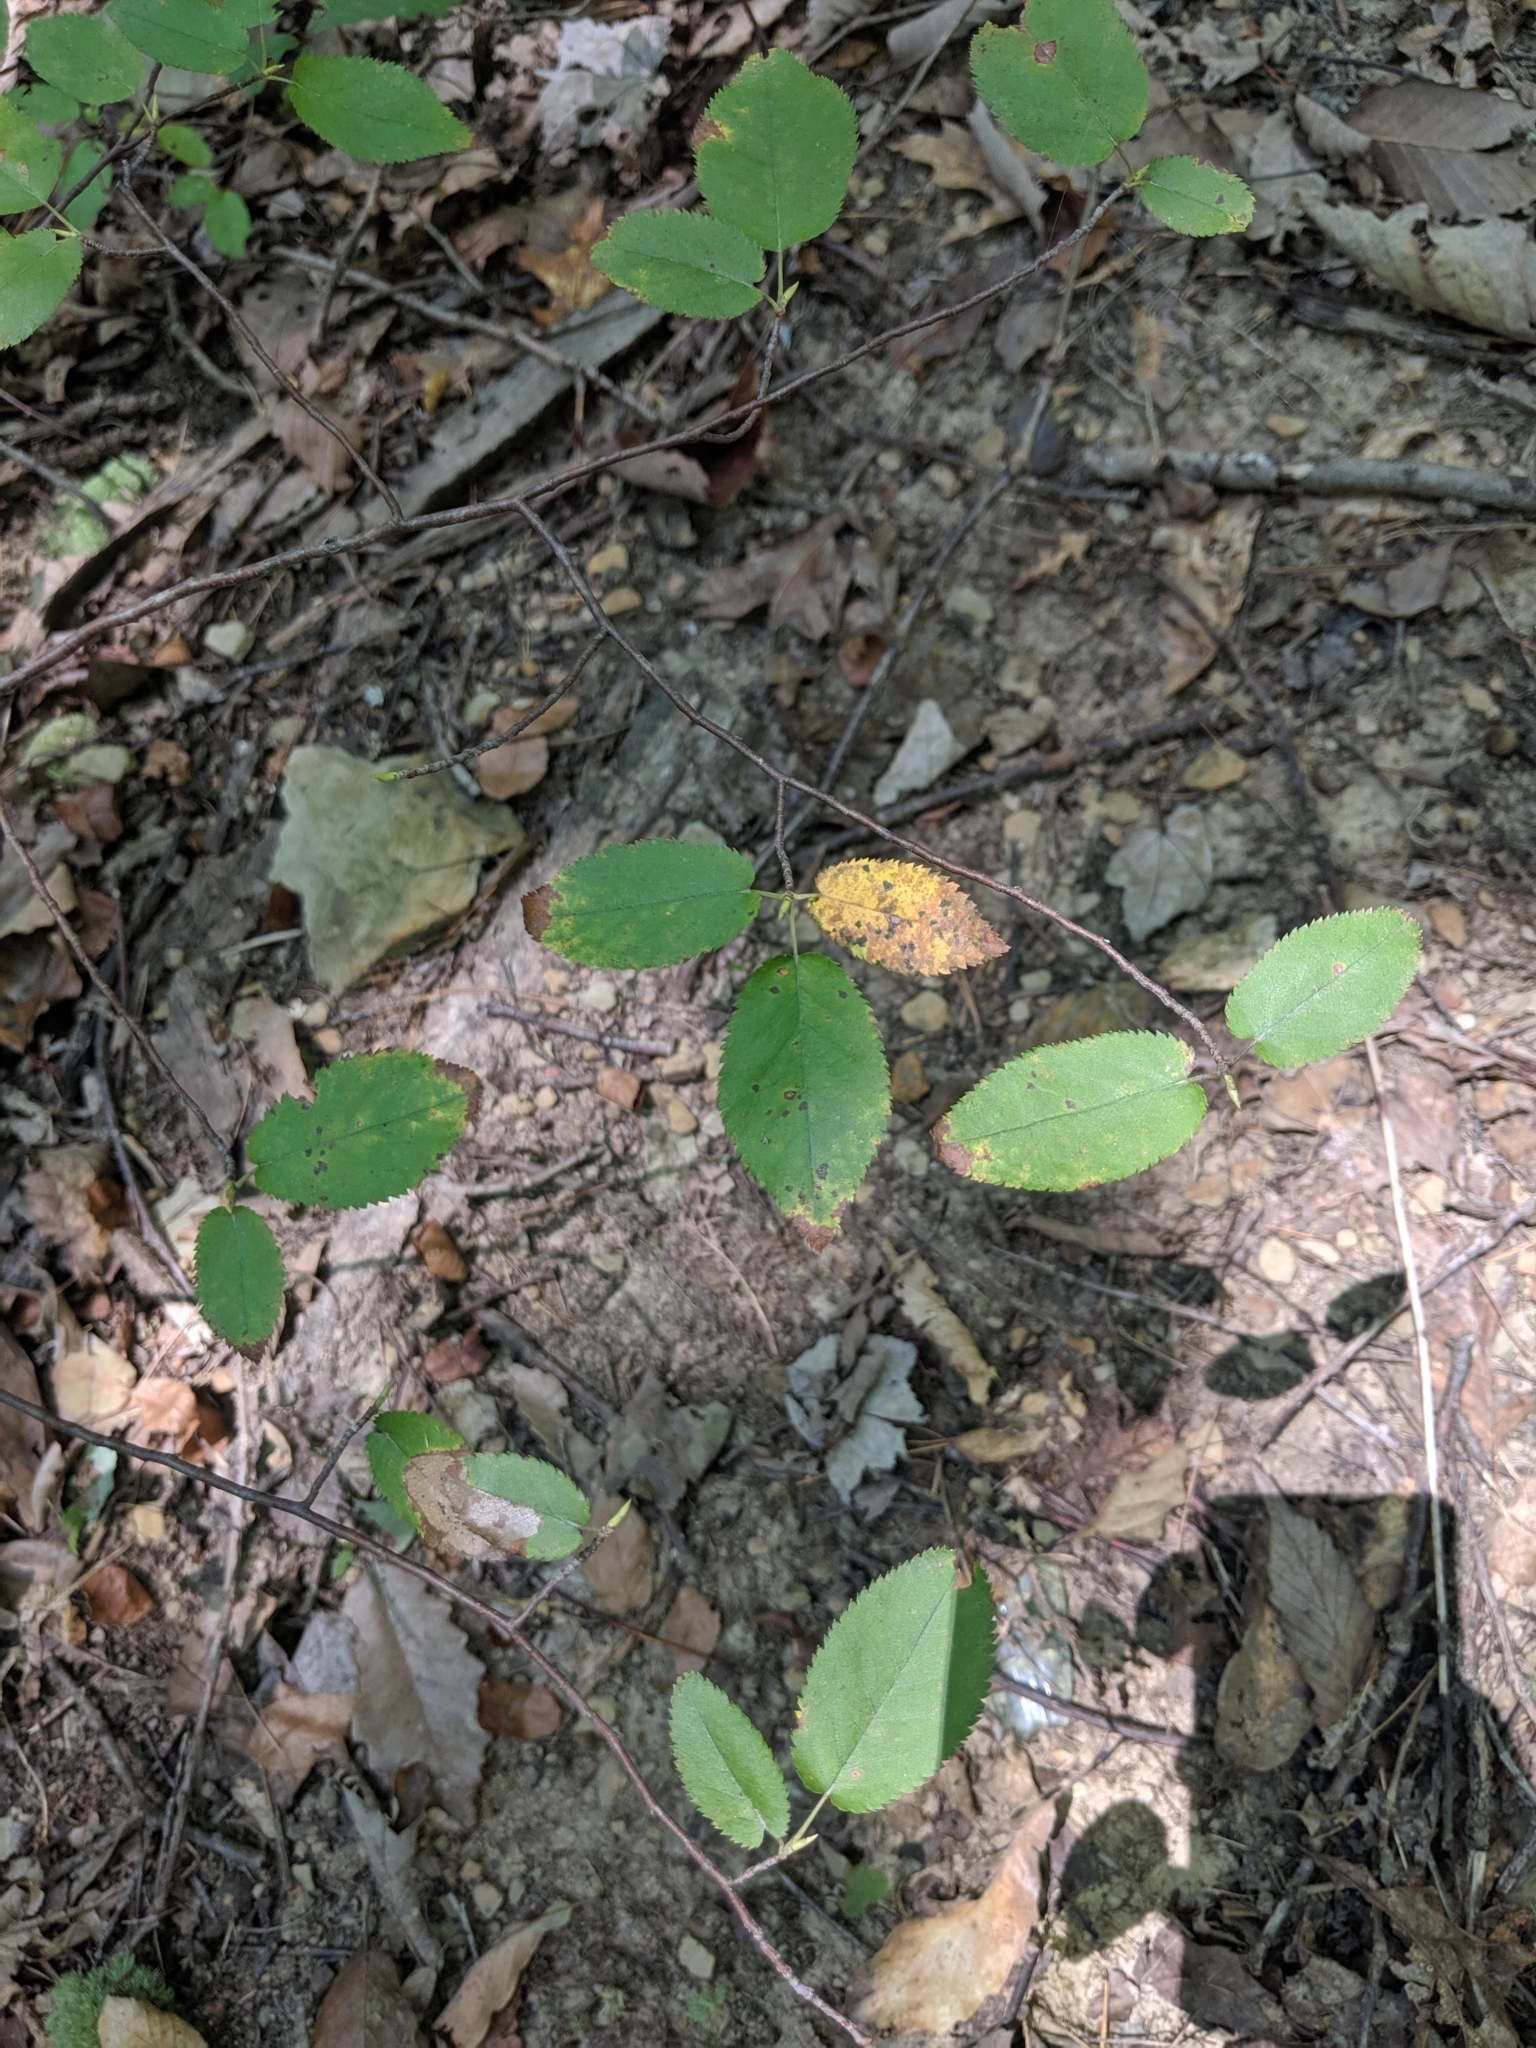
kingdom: Plantae
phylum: Tracheophyta
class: Magnoliopsida
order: Rosales
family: Rosaceae
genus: Amelanchier
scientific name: Amelanchier arborea
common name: Downy serviceberry
